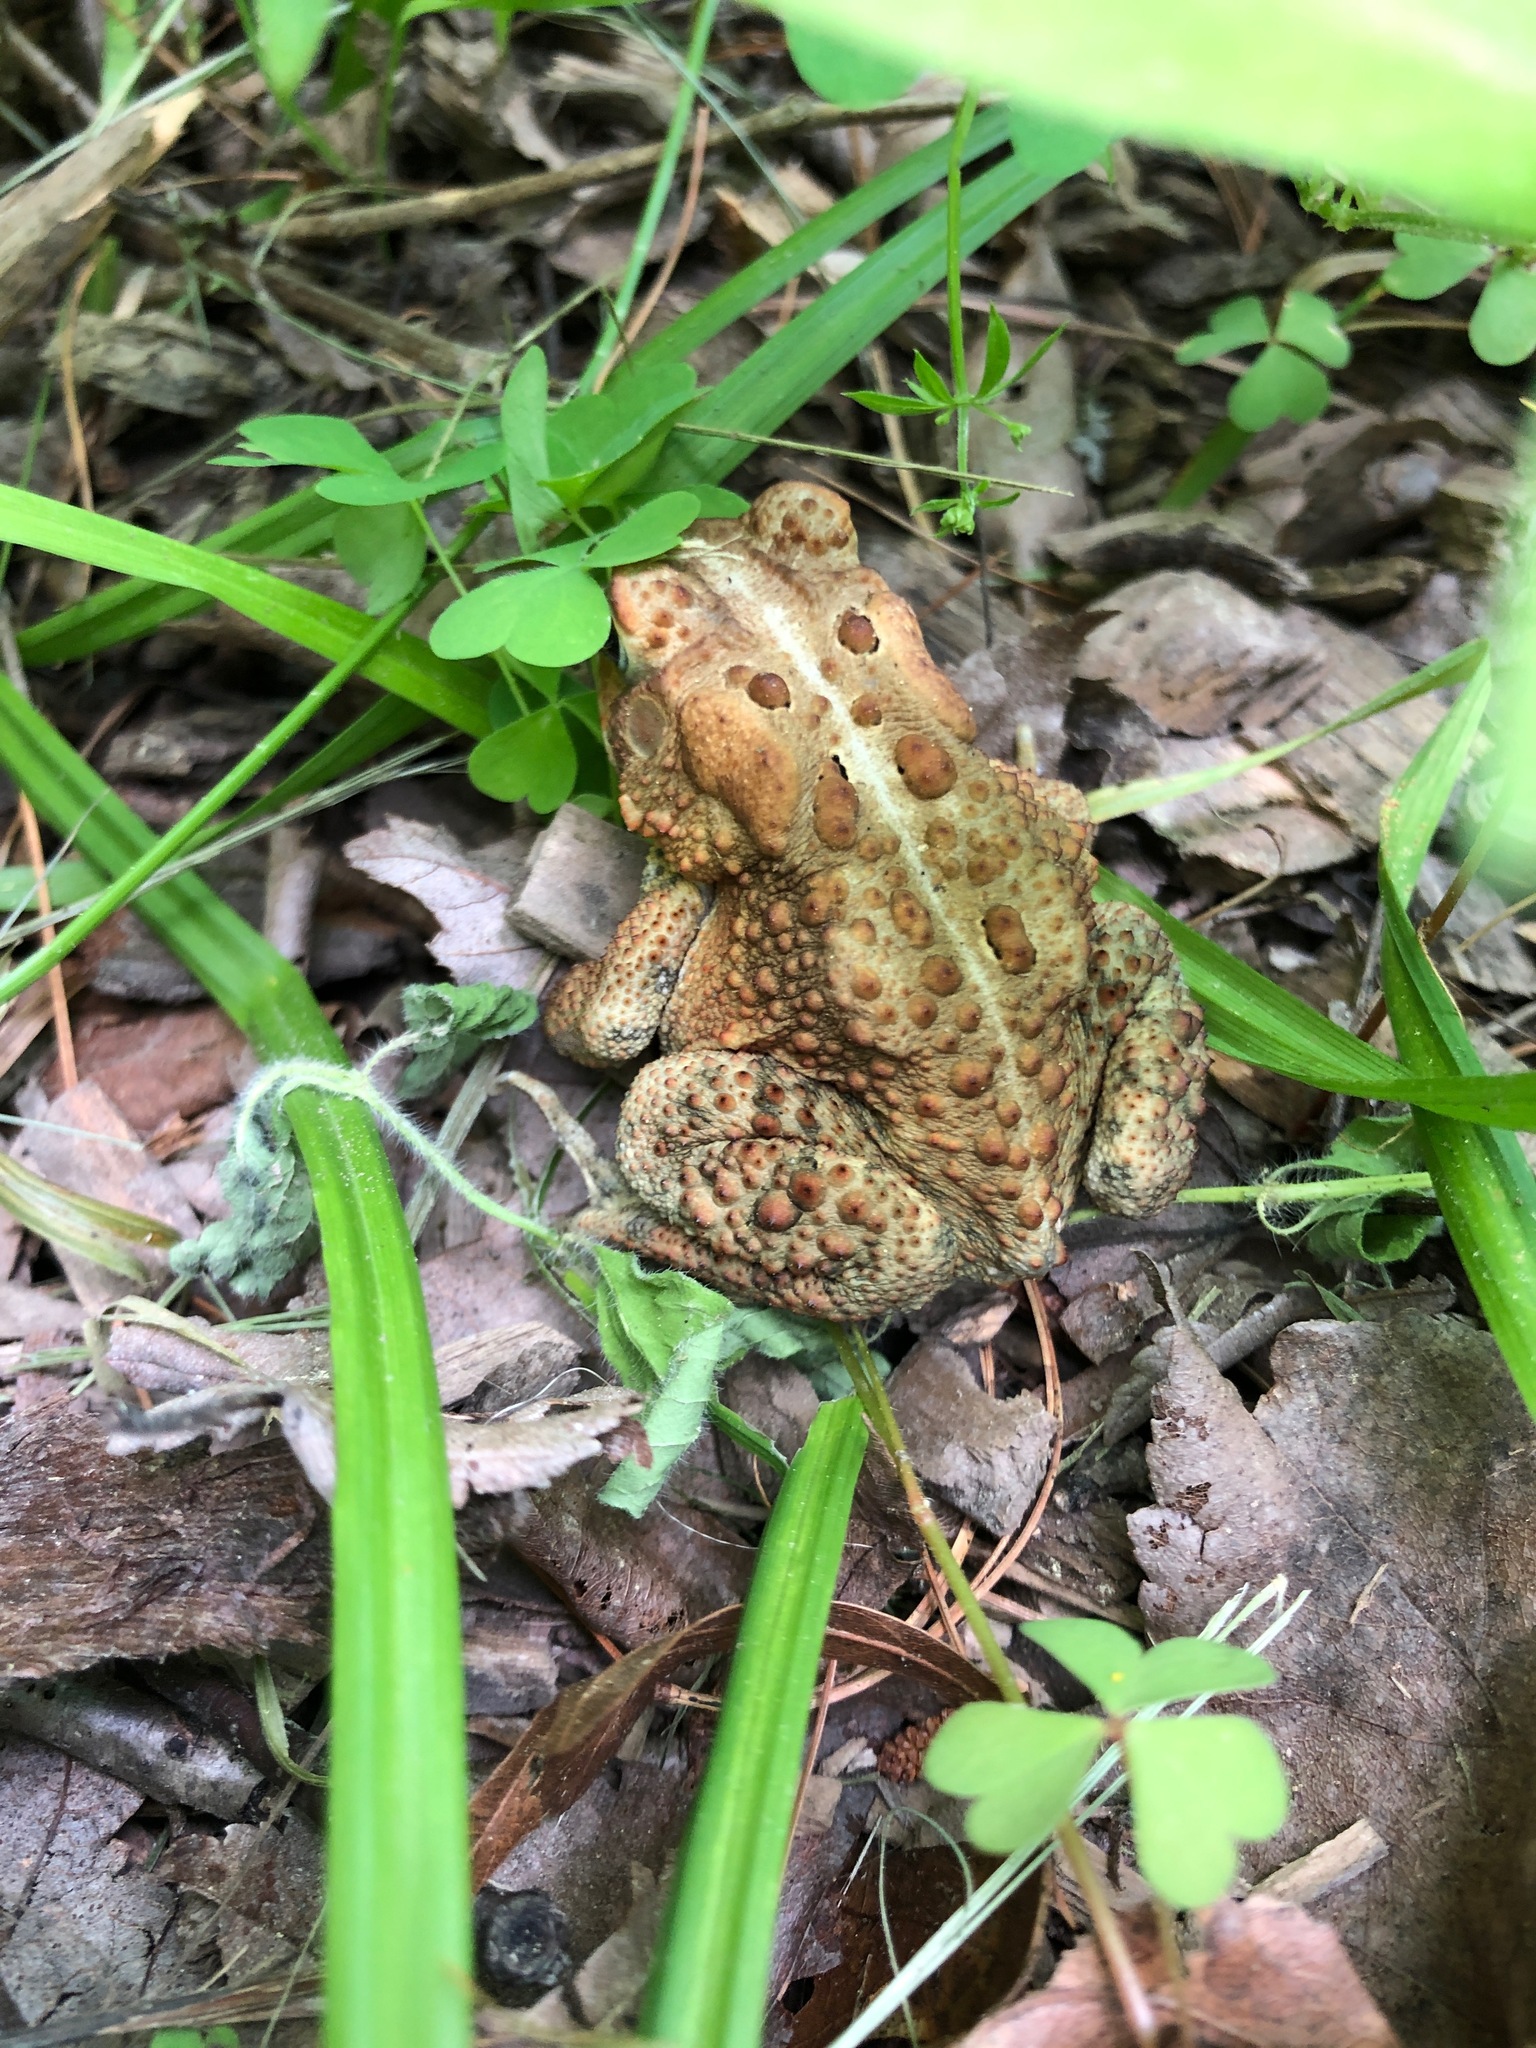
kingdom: Animalia
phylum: Chordata
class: Amphibia
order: Anura
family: Bufonidae
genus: Anaxyrus
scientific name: Anaxyrus americanus
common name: American toad
